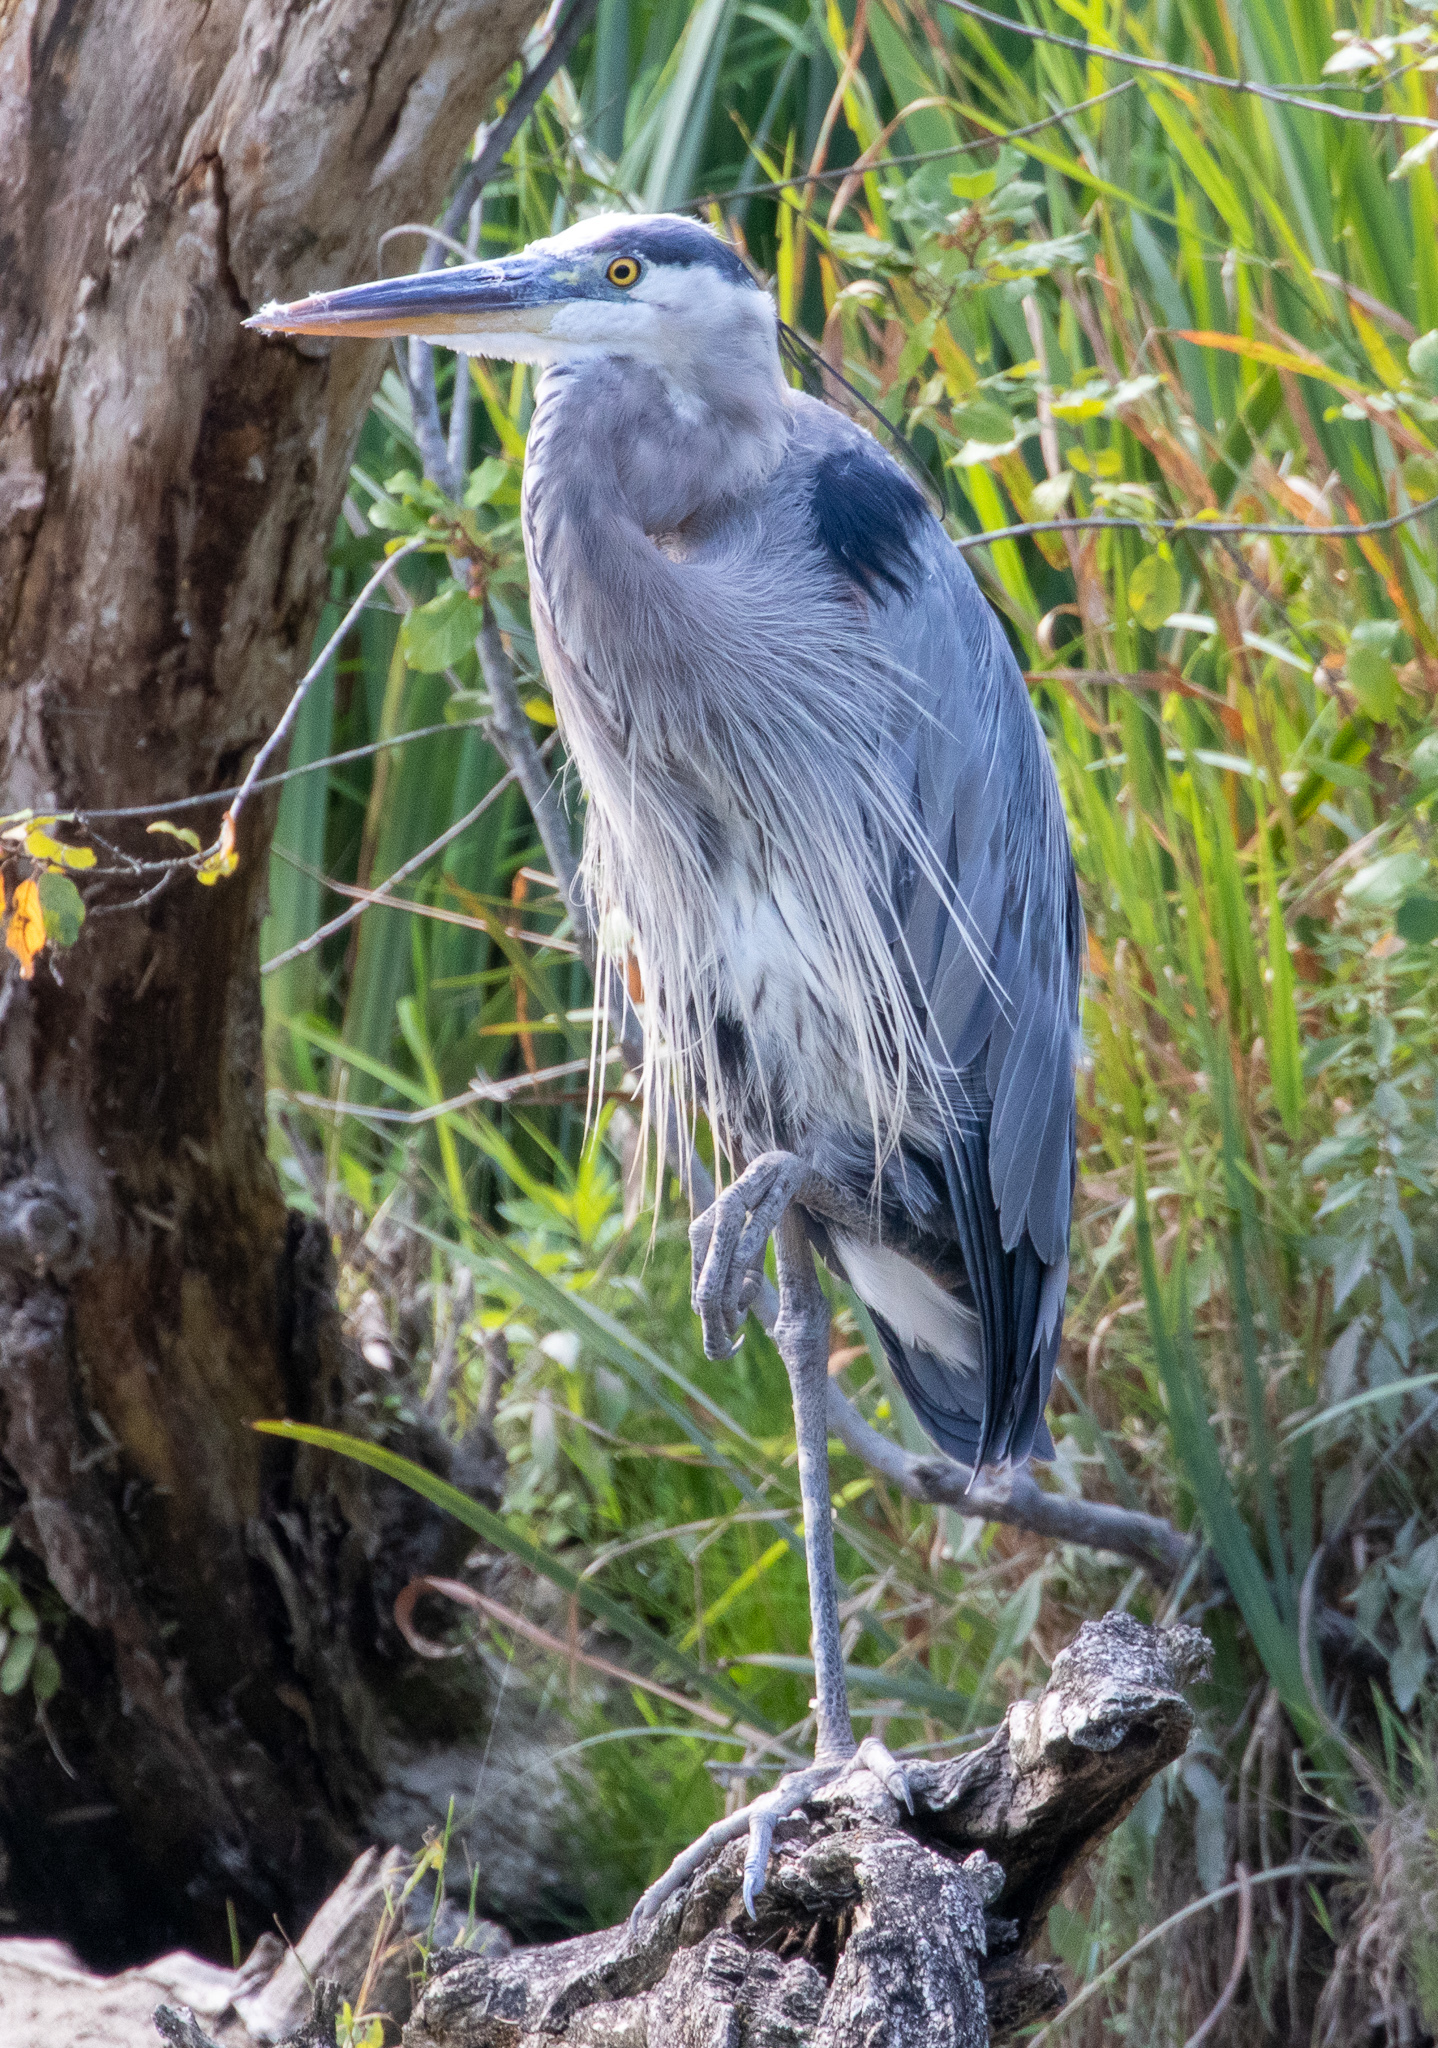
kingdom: Animalia
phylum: Chordata
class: Aves
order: Pelecaniformes
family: Ardeidae
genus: Ardea
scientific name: Ardea herodias
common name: Great blue heron
